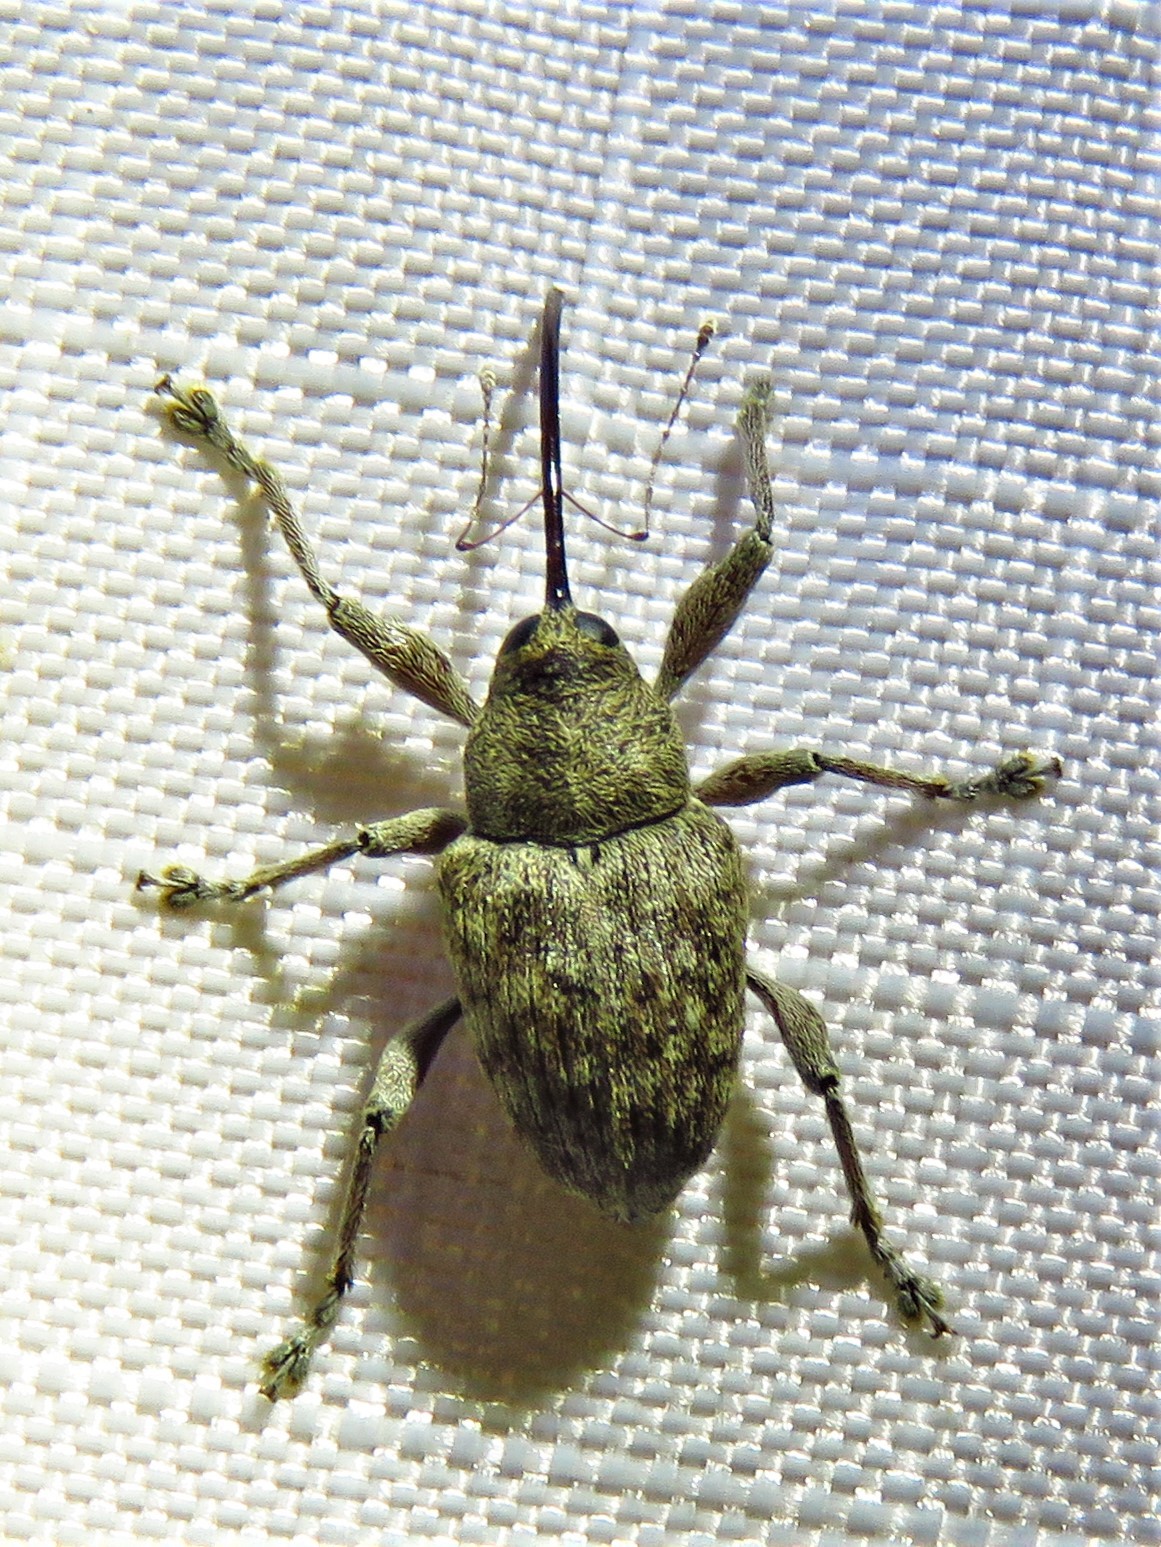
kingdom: Animalia
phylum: Arthropoda
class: Insecta
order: Coleoptera
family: Curculionidae
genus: Curculio
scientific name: Curculio
